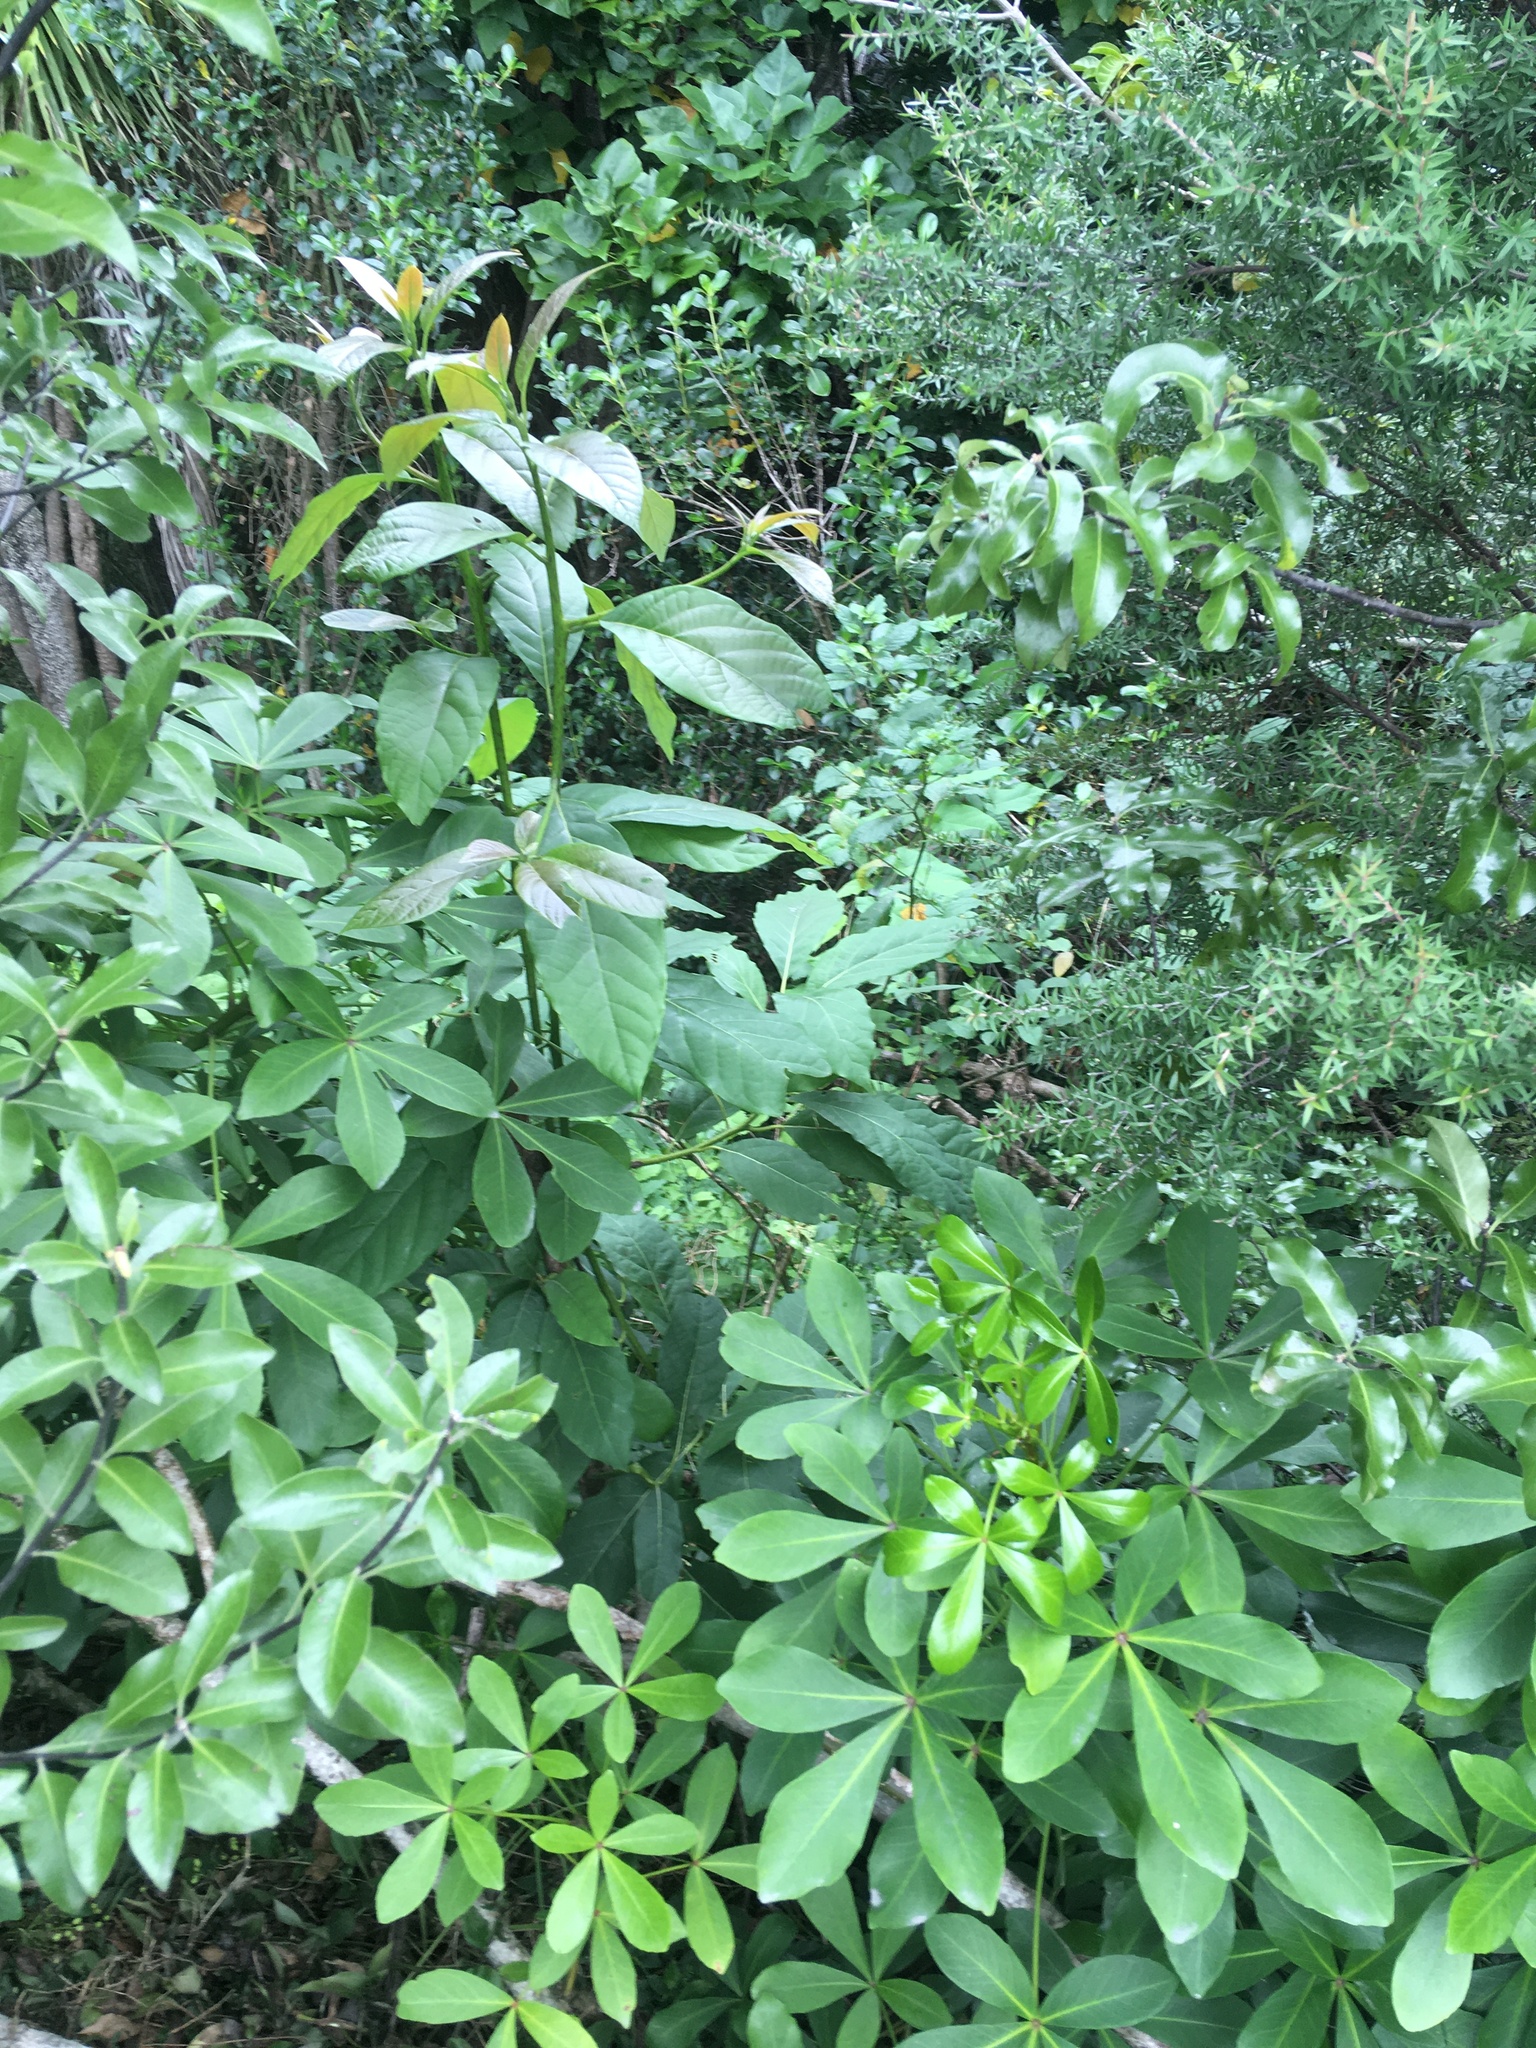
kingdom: Plantae
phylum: Tracheophyta
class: Magnoliopsida
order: Laurales
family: Lauraceae
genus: Persea
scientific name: Persea americana
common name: Avocado
